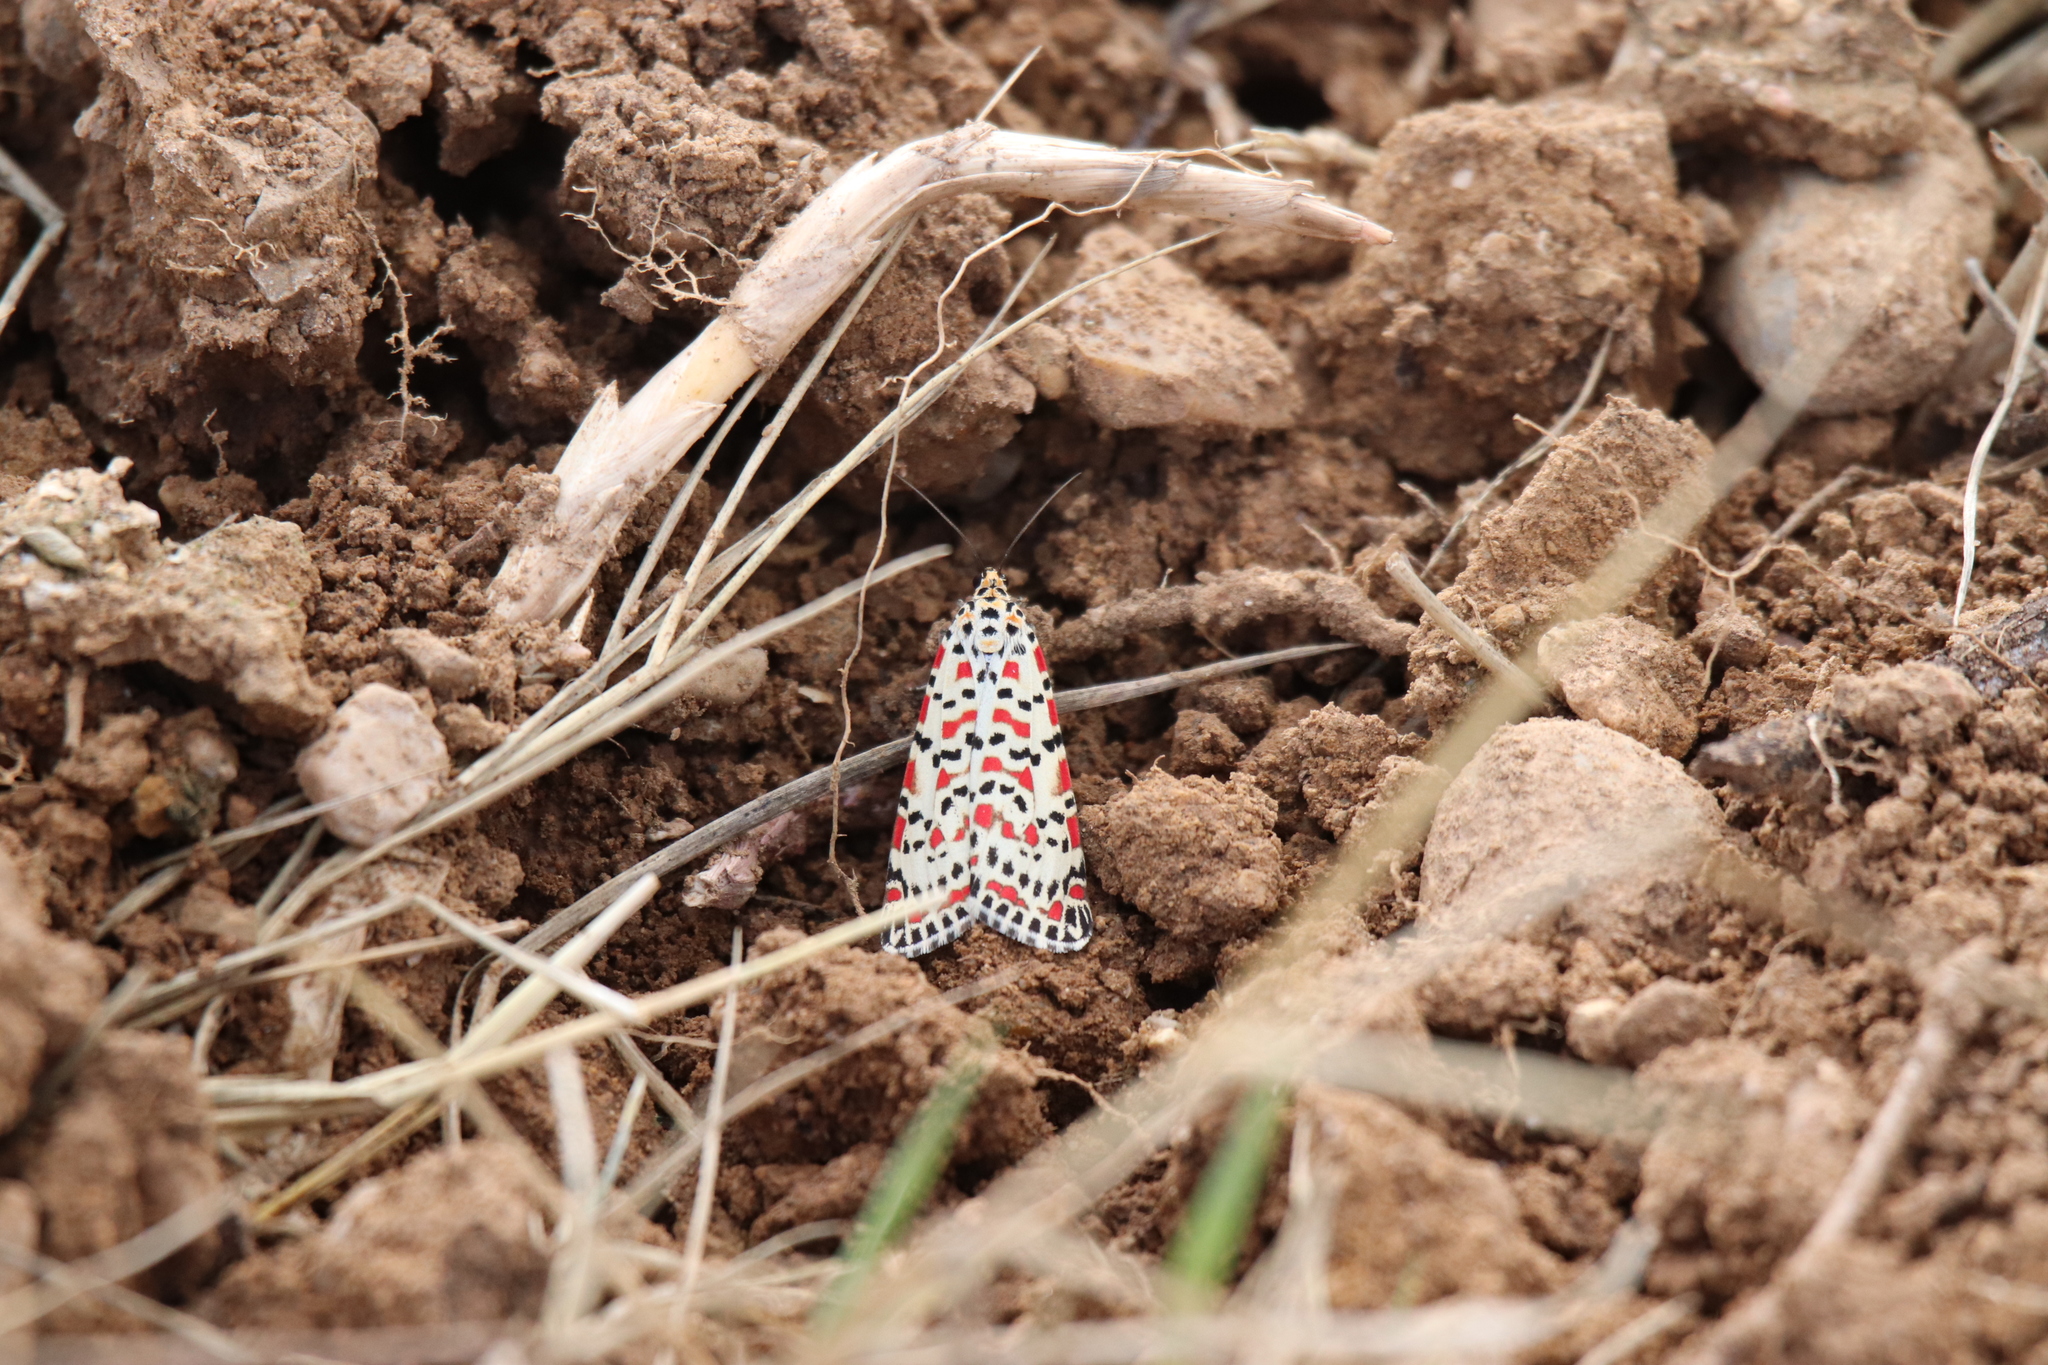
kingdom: Animalia
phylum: Arthropoda
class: Insecta
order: Lepidoptera
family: Erebidae
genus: Utetheisa
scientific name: Utetheisa pulchella
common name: Crimson speckled
